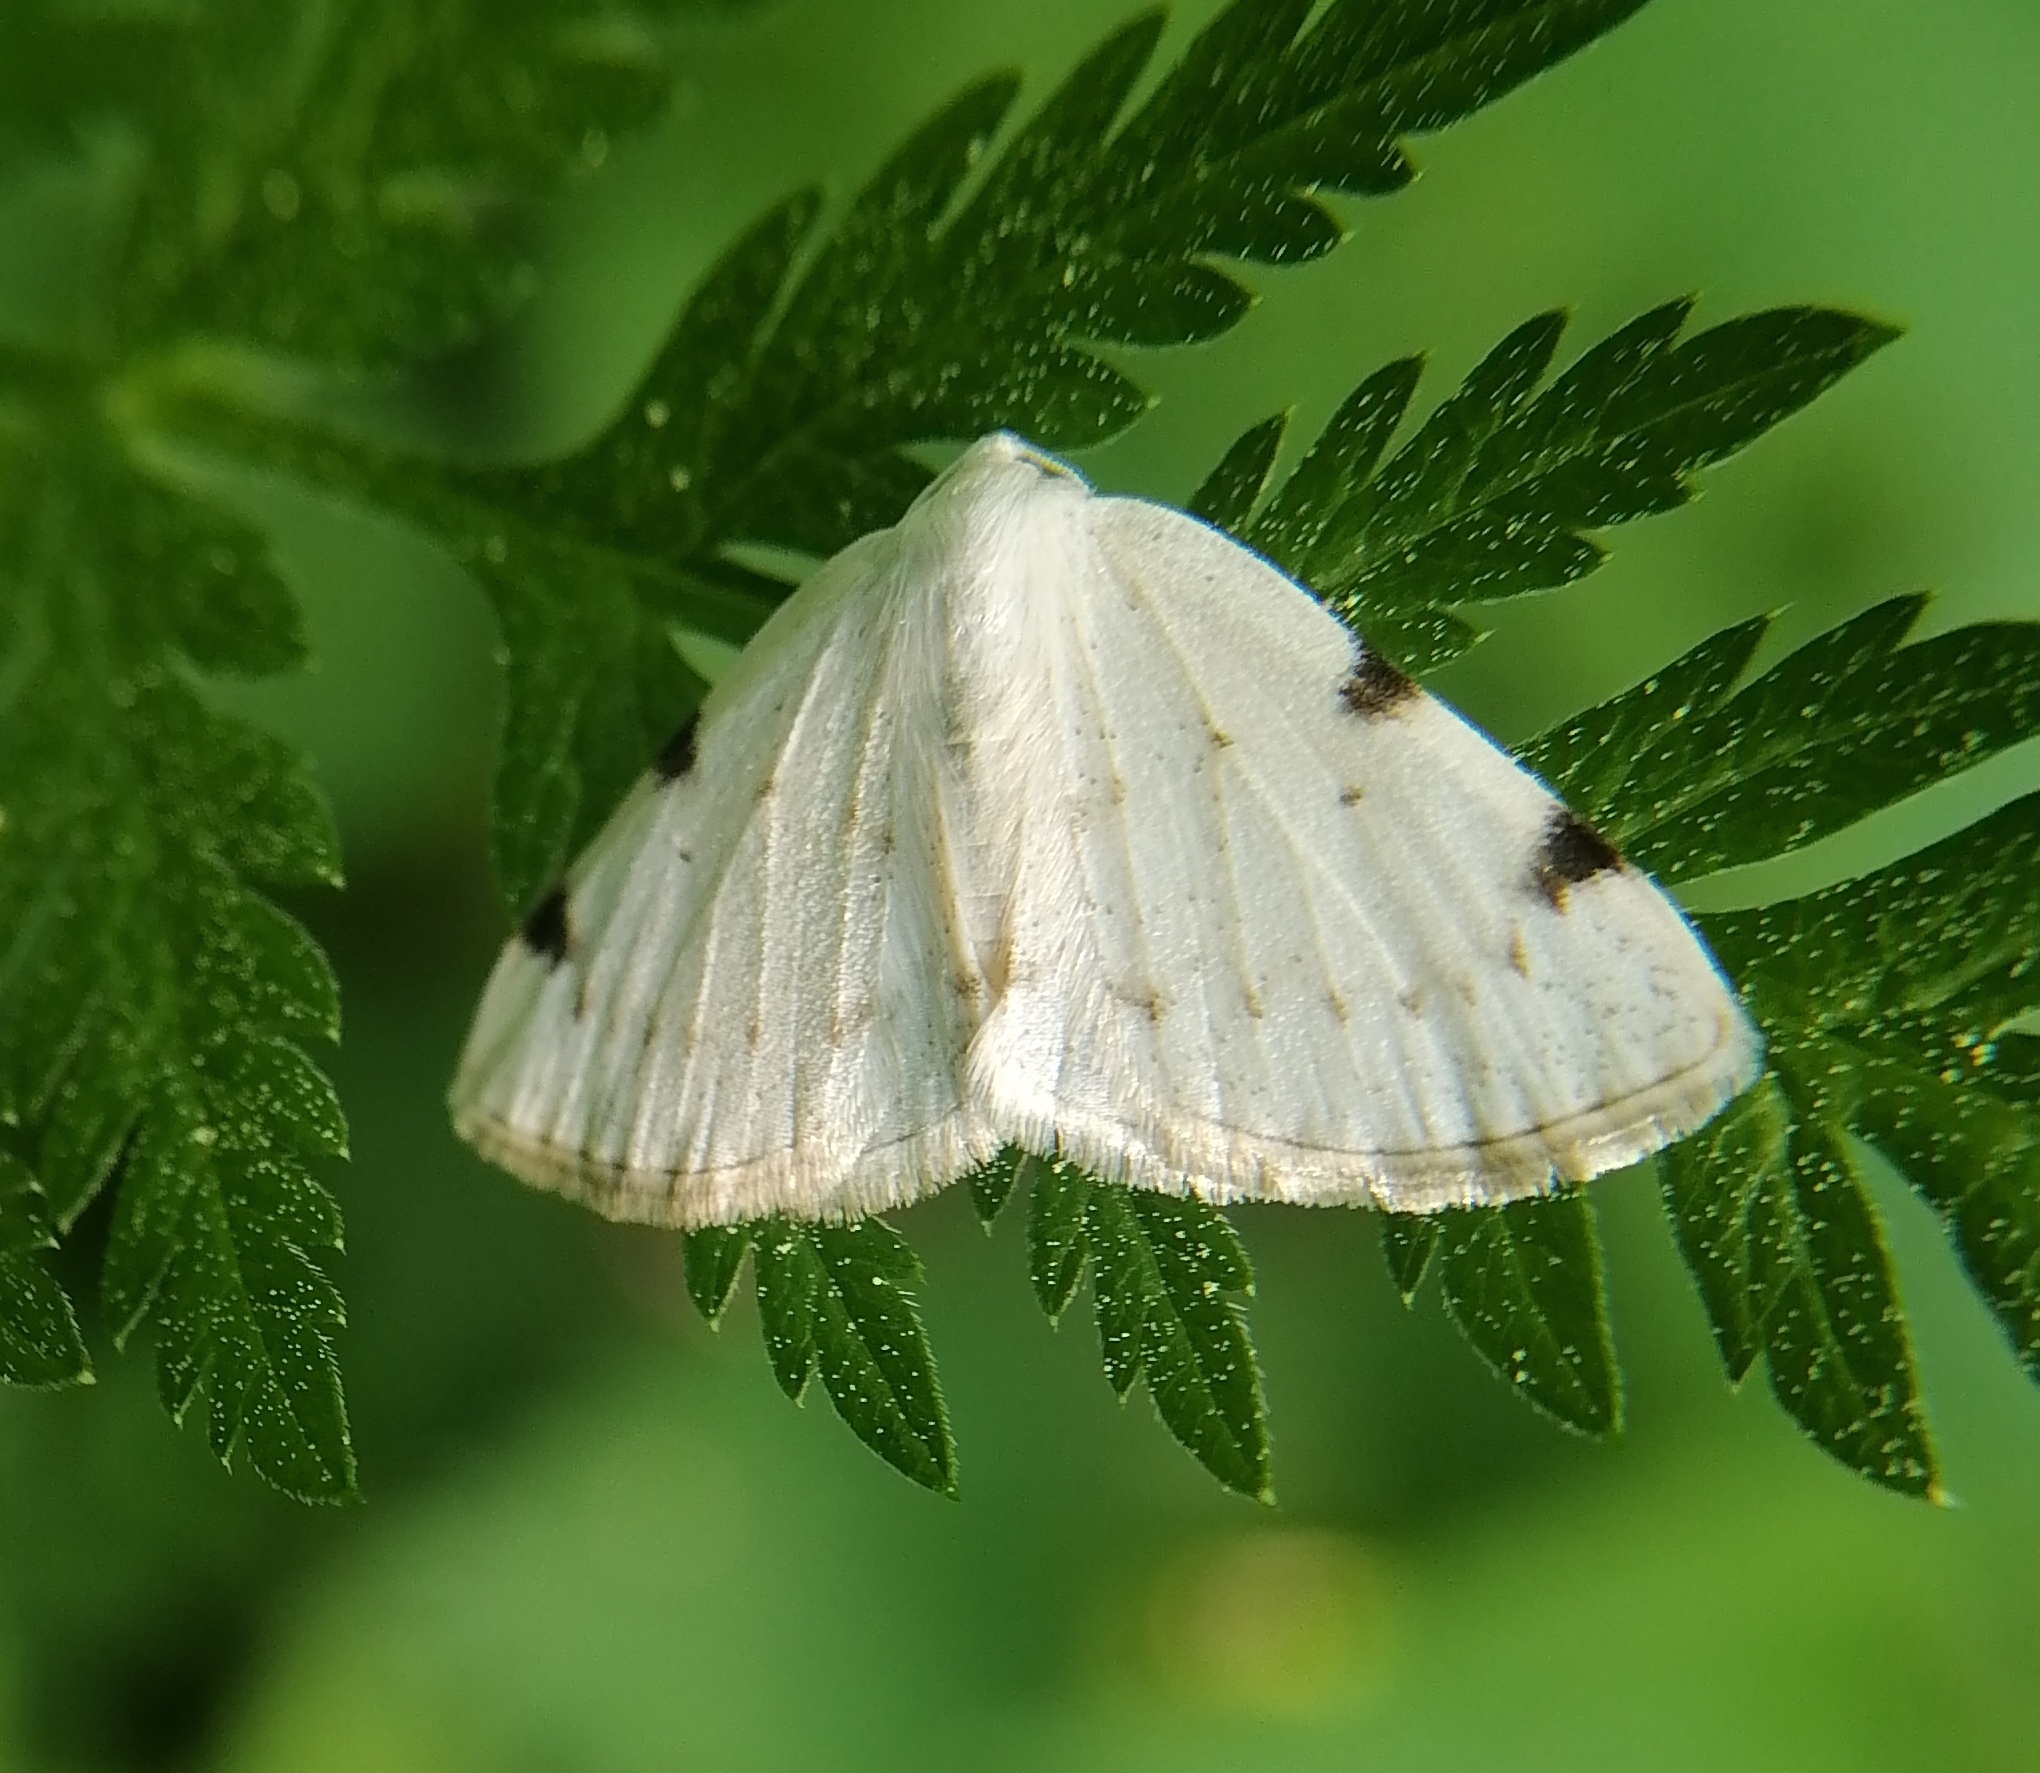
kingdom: Animalia
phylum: Arthropoda
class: Insecta
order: Lepidoptera
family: Geometridae
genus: Lomographa
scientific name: Lomographa bimaculata
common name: White-pinion spotted
